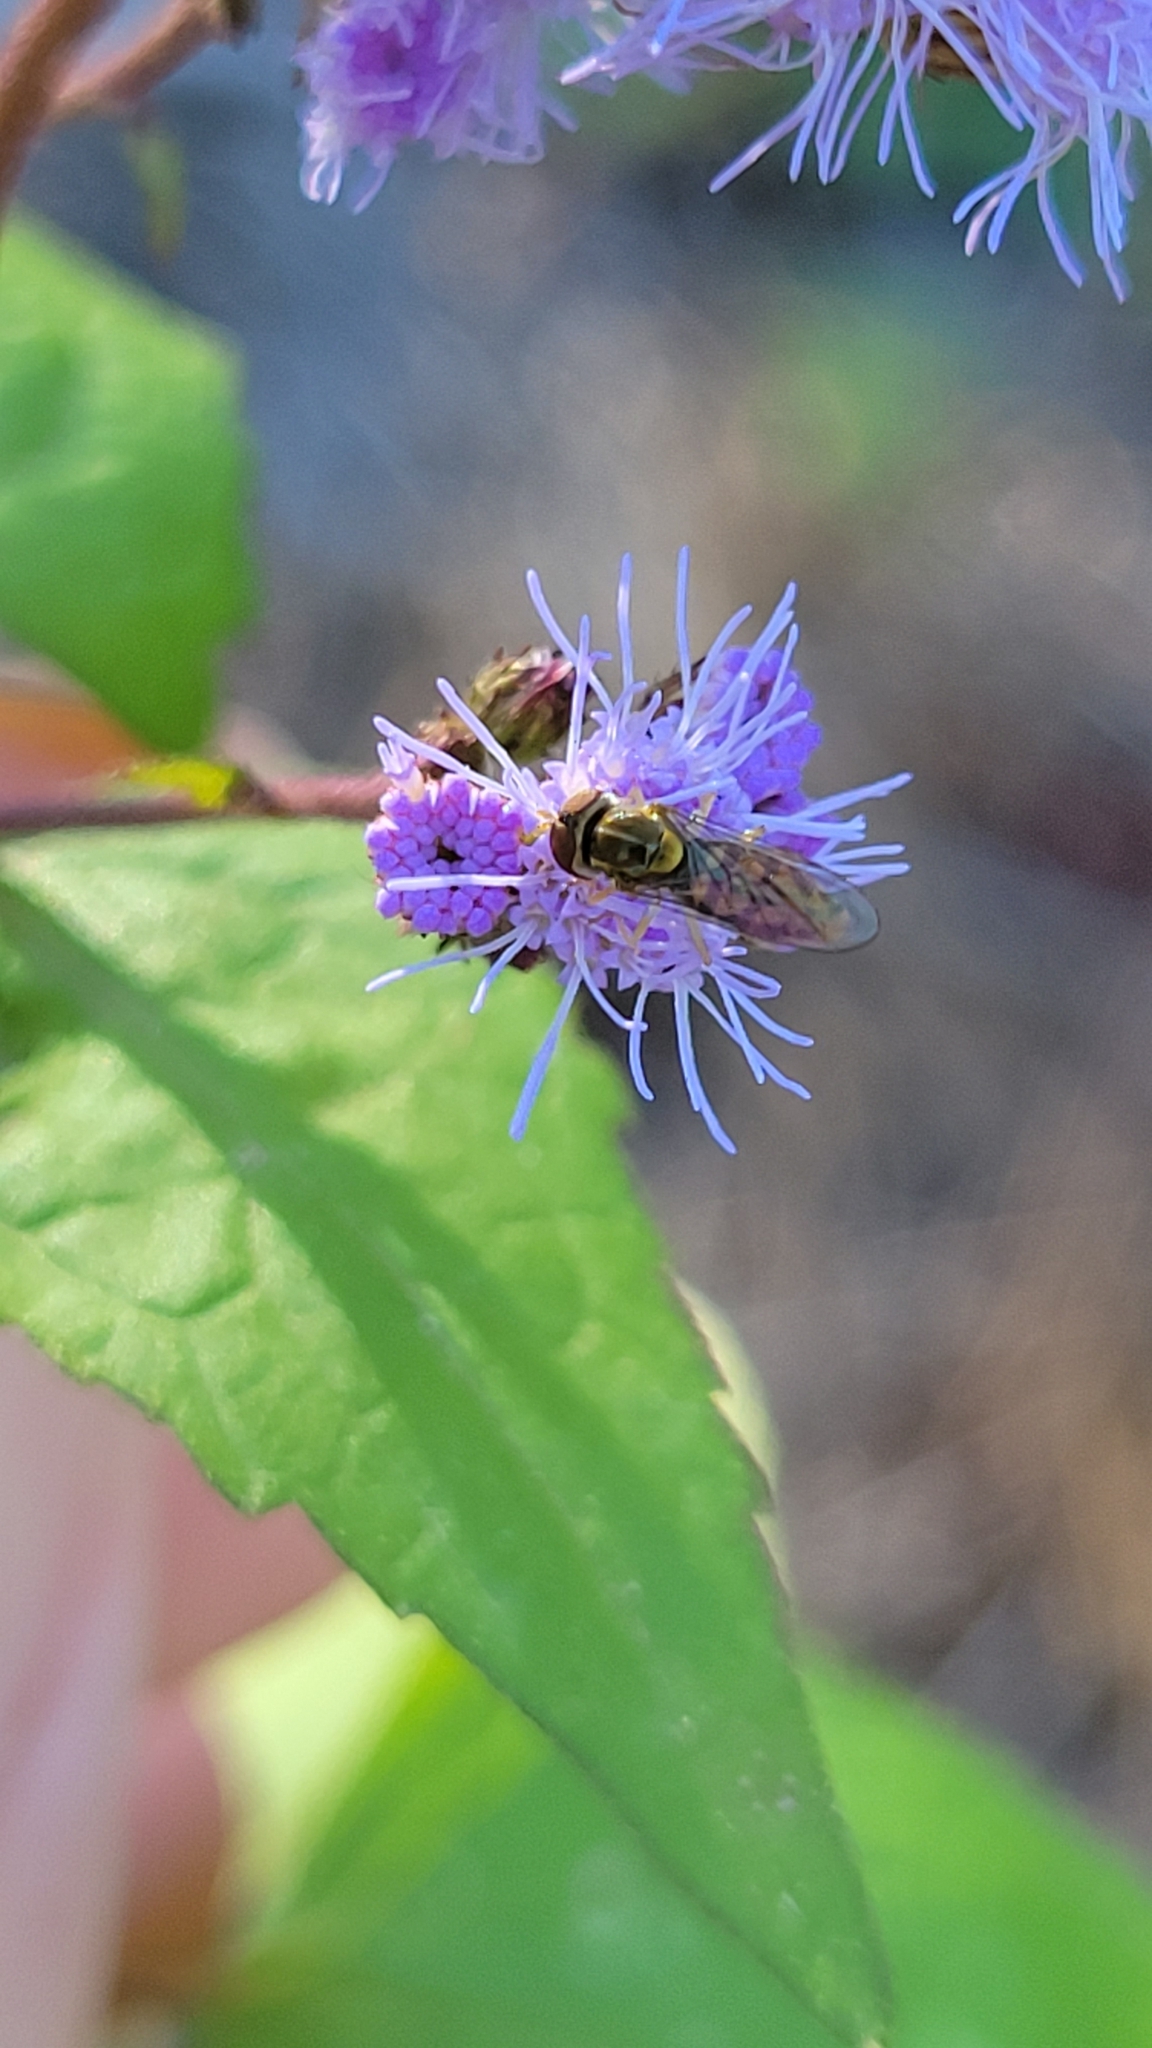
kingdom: Animalia
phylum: Arthropoda
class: Insecta
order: Diptera
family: Syrphidae
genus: Toxomerus
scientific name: Toxomerus marginatus
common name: Syrphid fly
